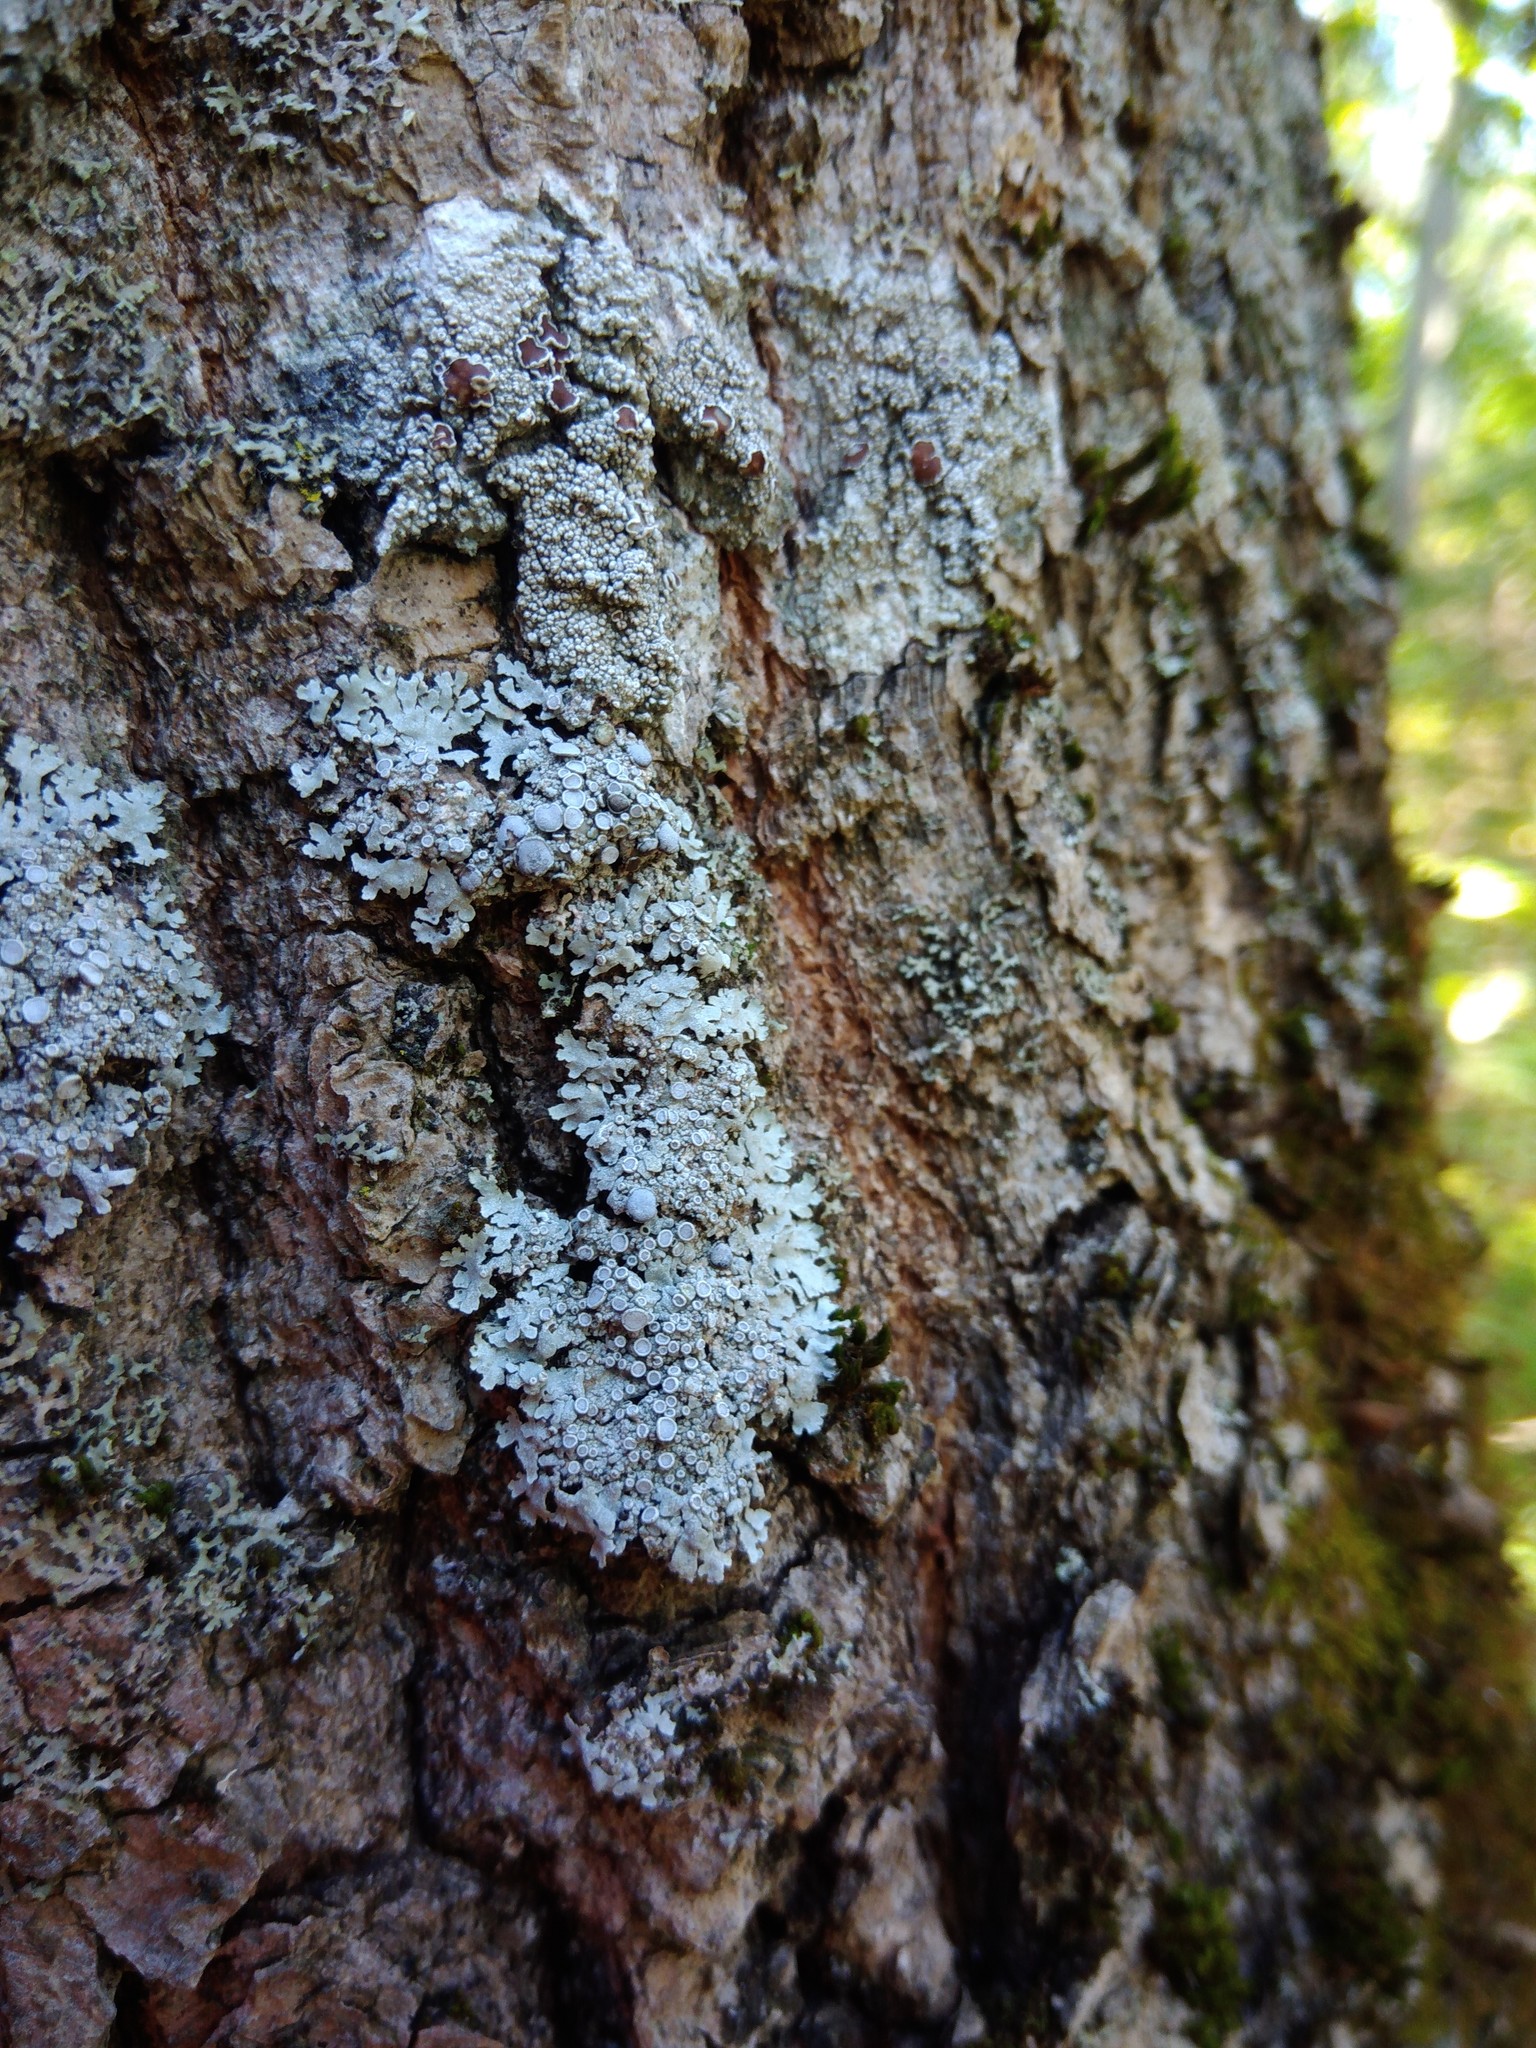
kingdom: Fungi
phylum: Ascomycota
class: Lecanoromycetes
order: Caliciales
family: Physciaceae
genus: Physcia
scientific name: Physcia aipolia
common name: Hoary rosette lichen
